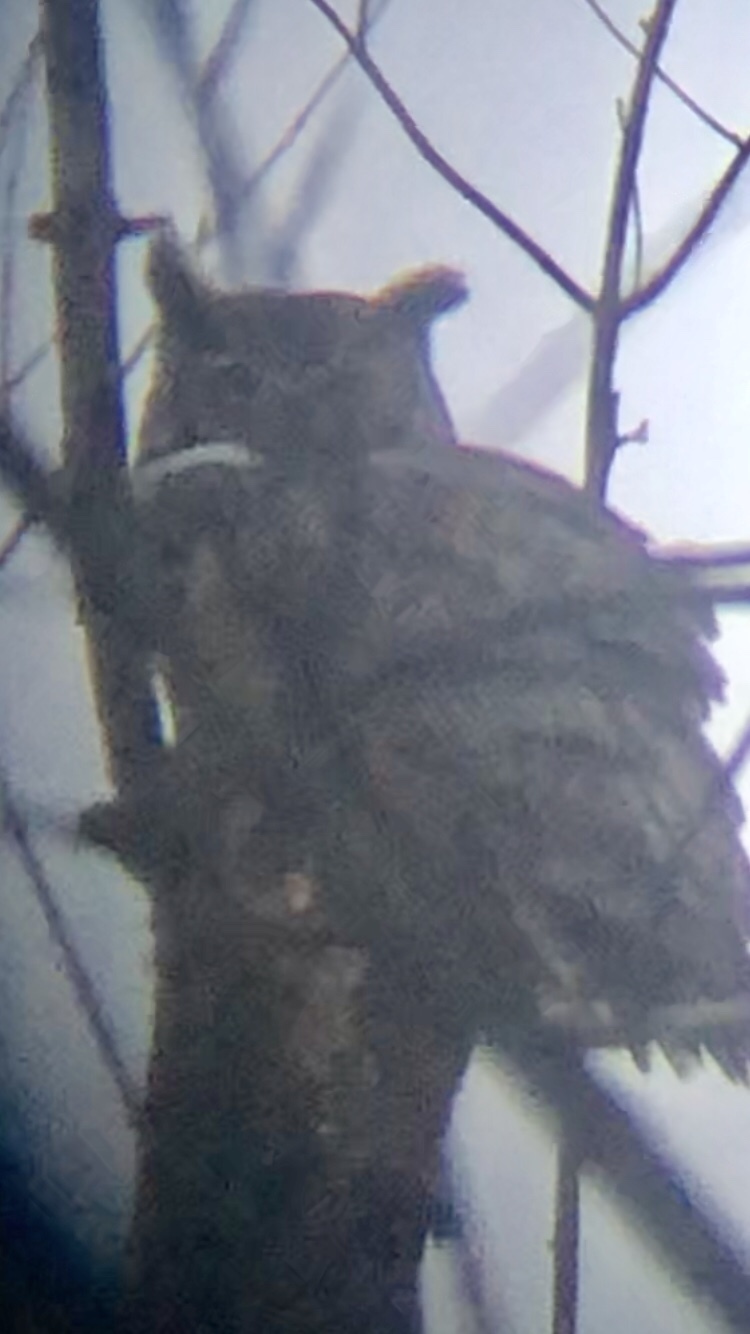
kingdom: Animalia
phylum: Chordata
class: Aves
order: Strigiformes
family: Strigidae
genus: Bubo
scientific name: Bubo virginianus
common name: Great horned owl
